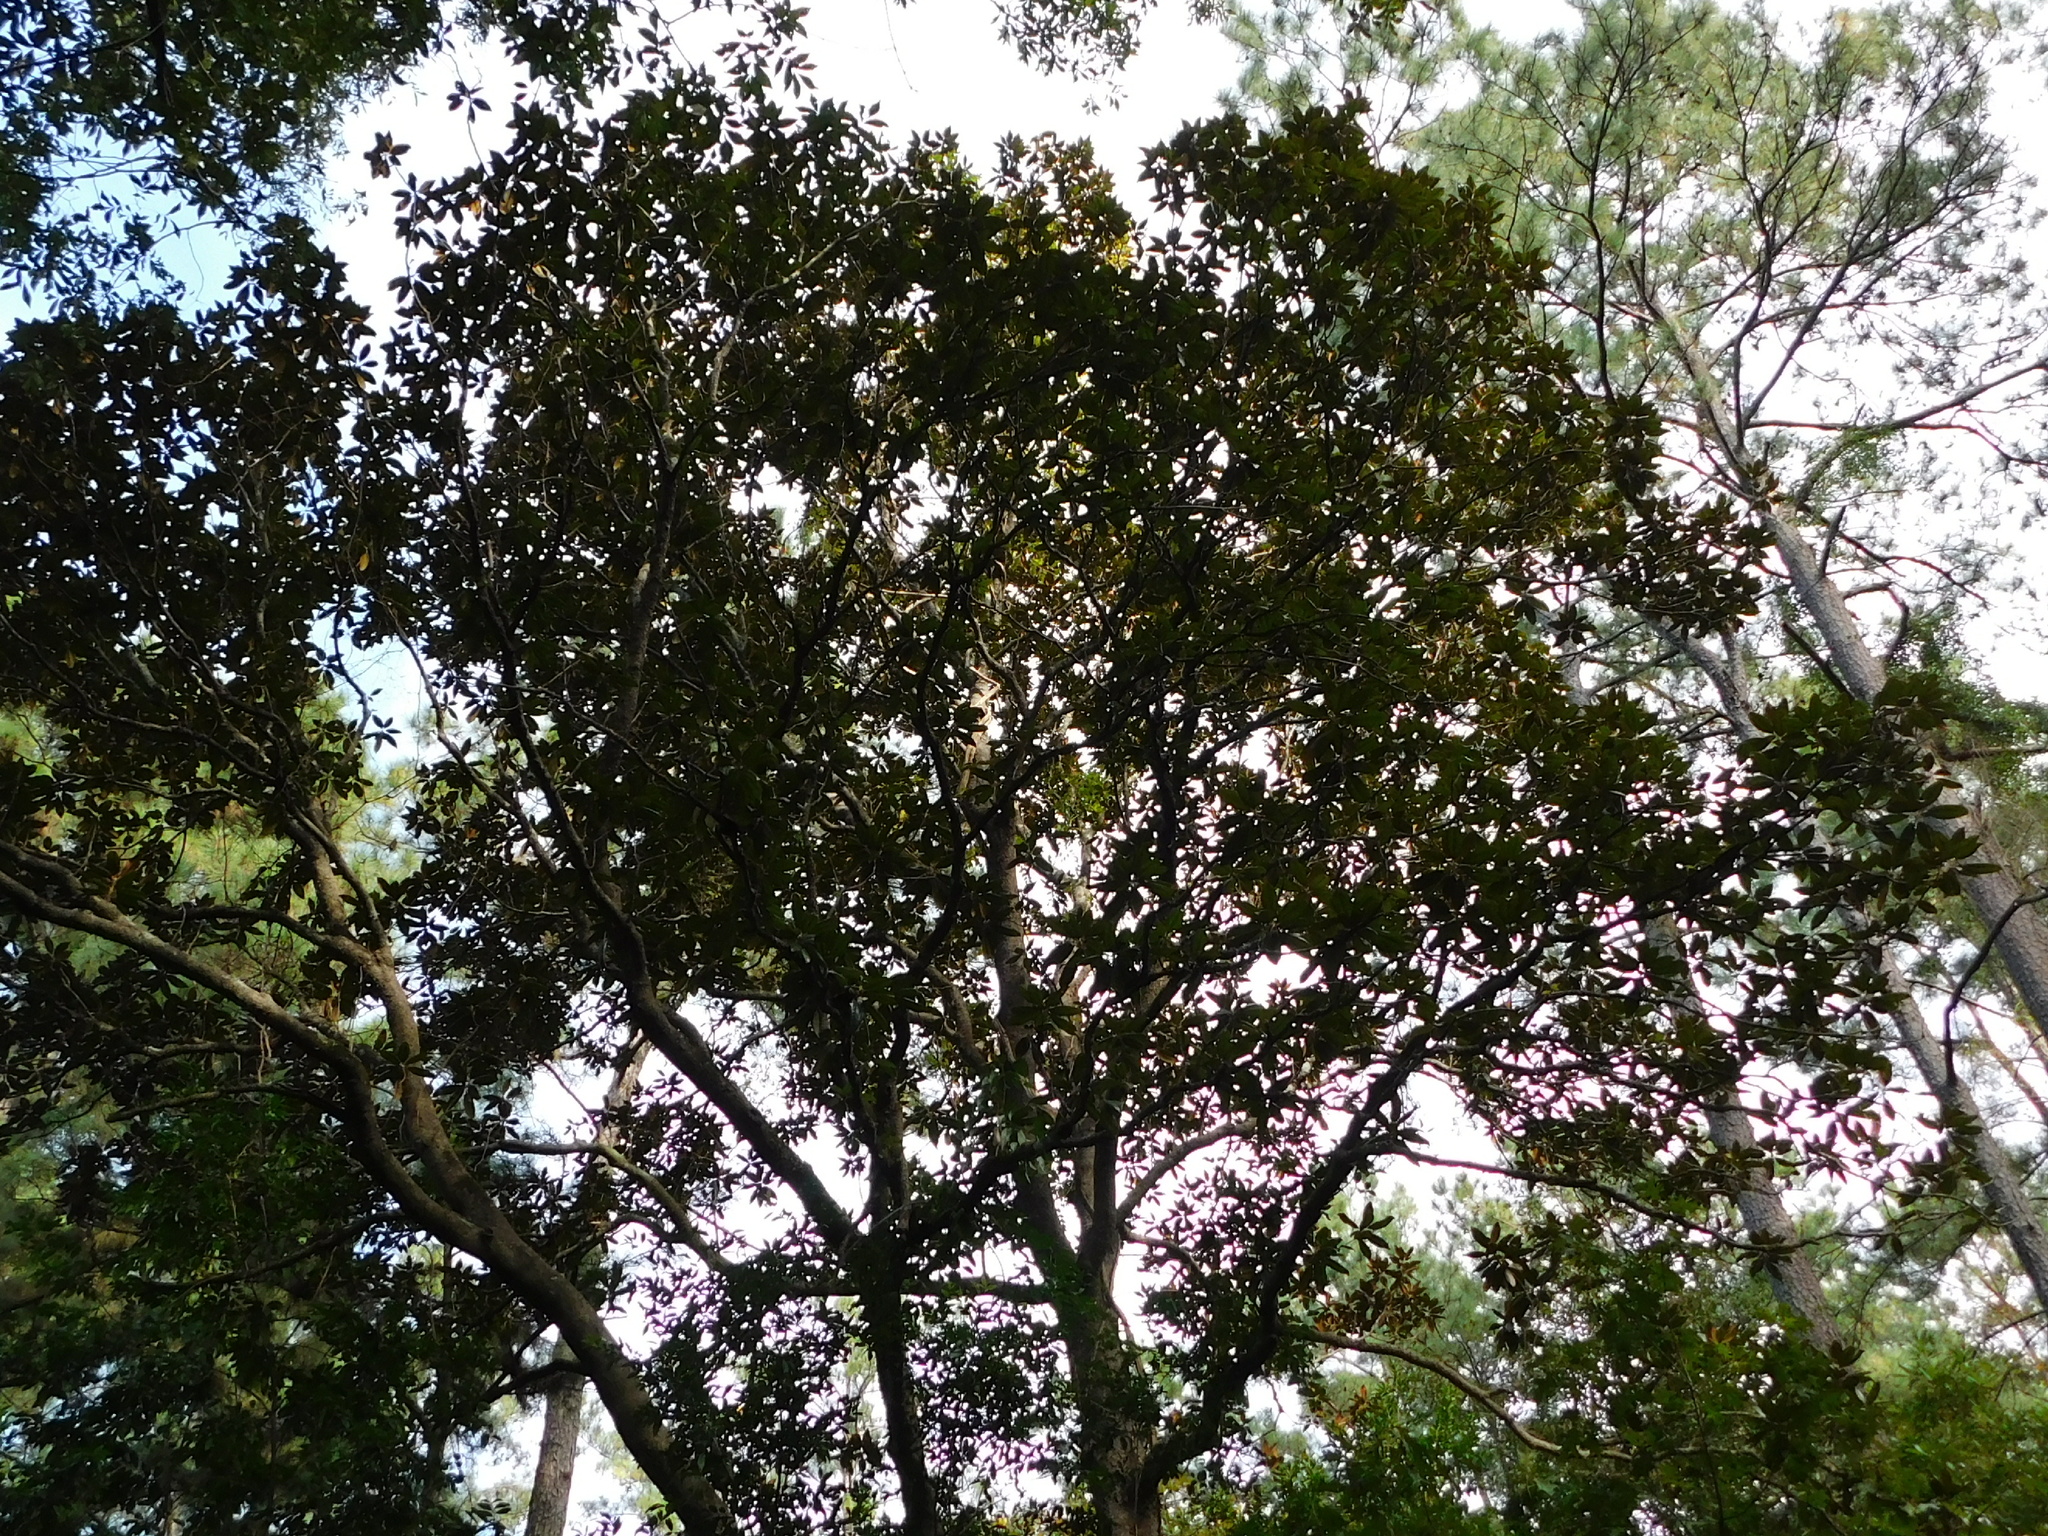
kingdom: Plantae
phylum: Tracheophyta
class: Magnoliopsida
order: Magnoliales
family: Magnoliaceae
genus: Magnolia
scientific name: Magnolia grandiflora
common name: Southern magnolia
